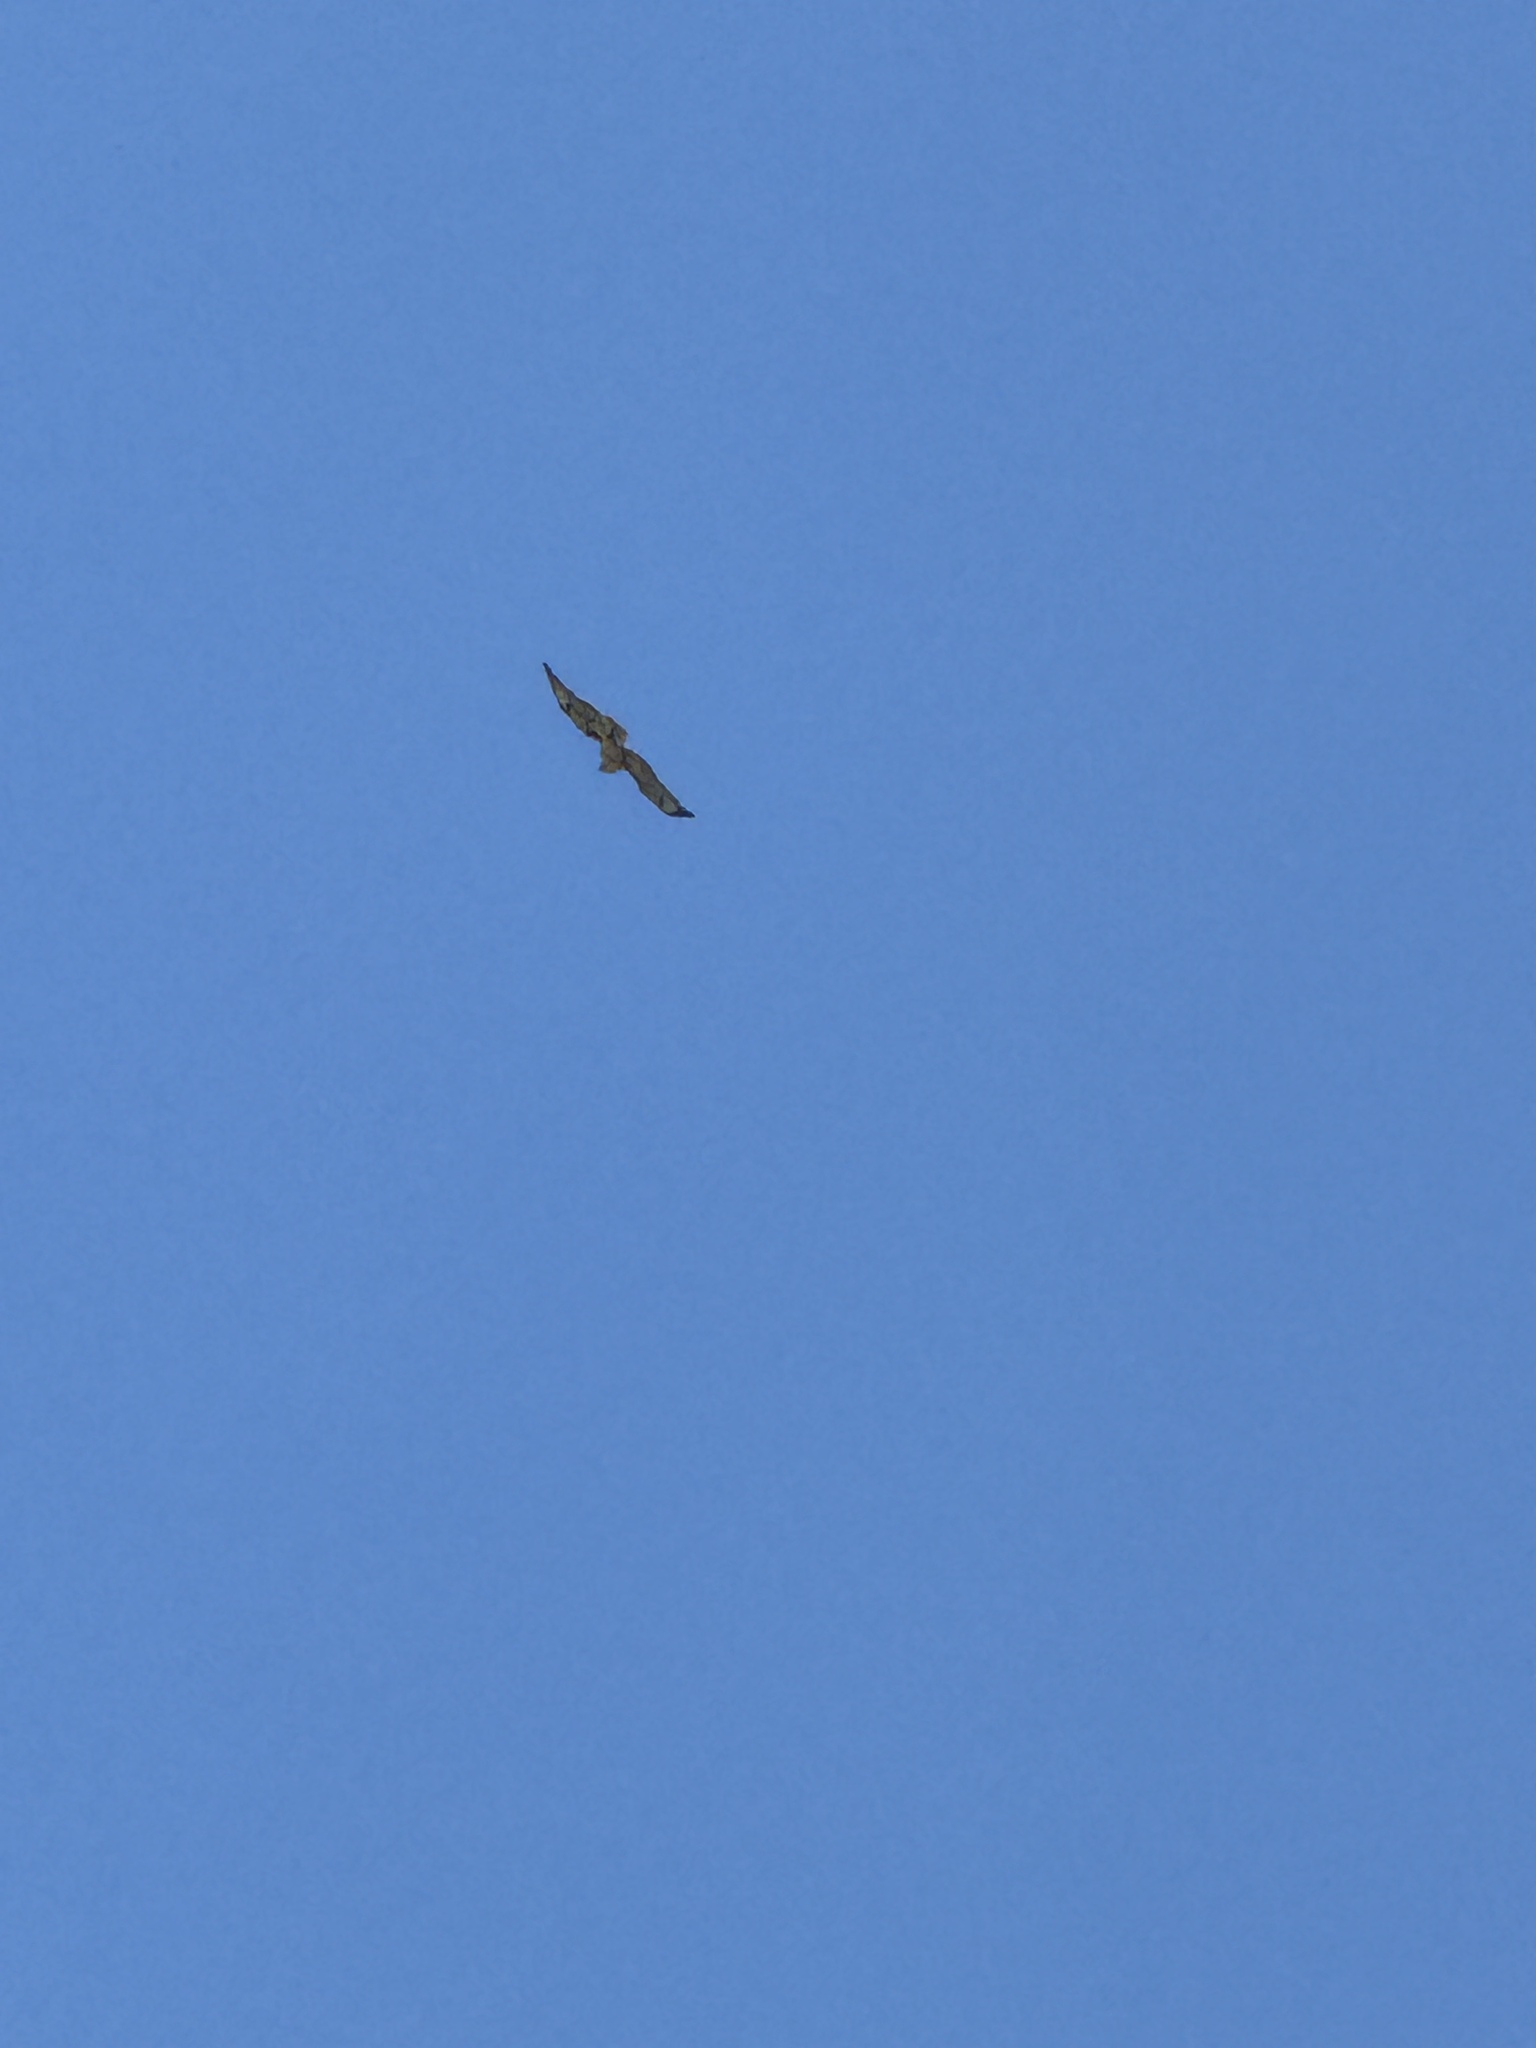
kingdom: Animalia
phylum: Chordata
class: Aves
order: Accipitriformes
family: Accipitridae
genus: Buteo
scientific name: Buteo jamaicensis
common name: Red-tailed hawk
